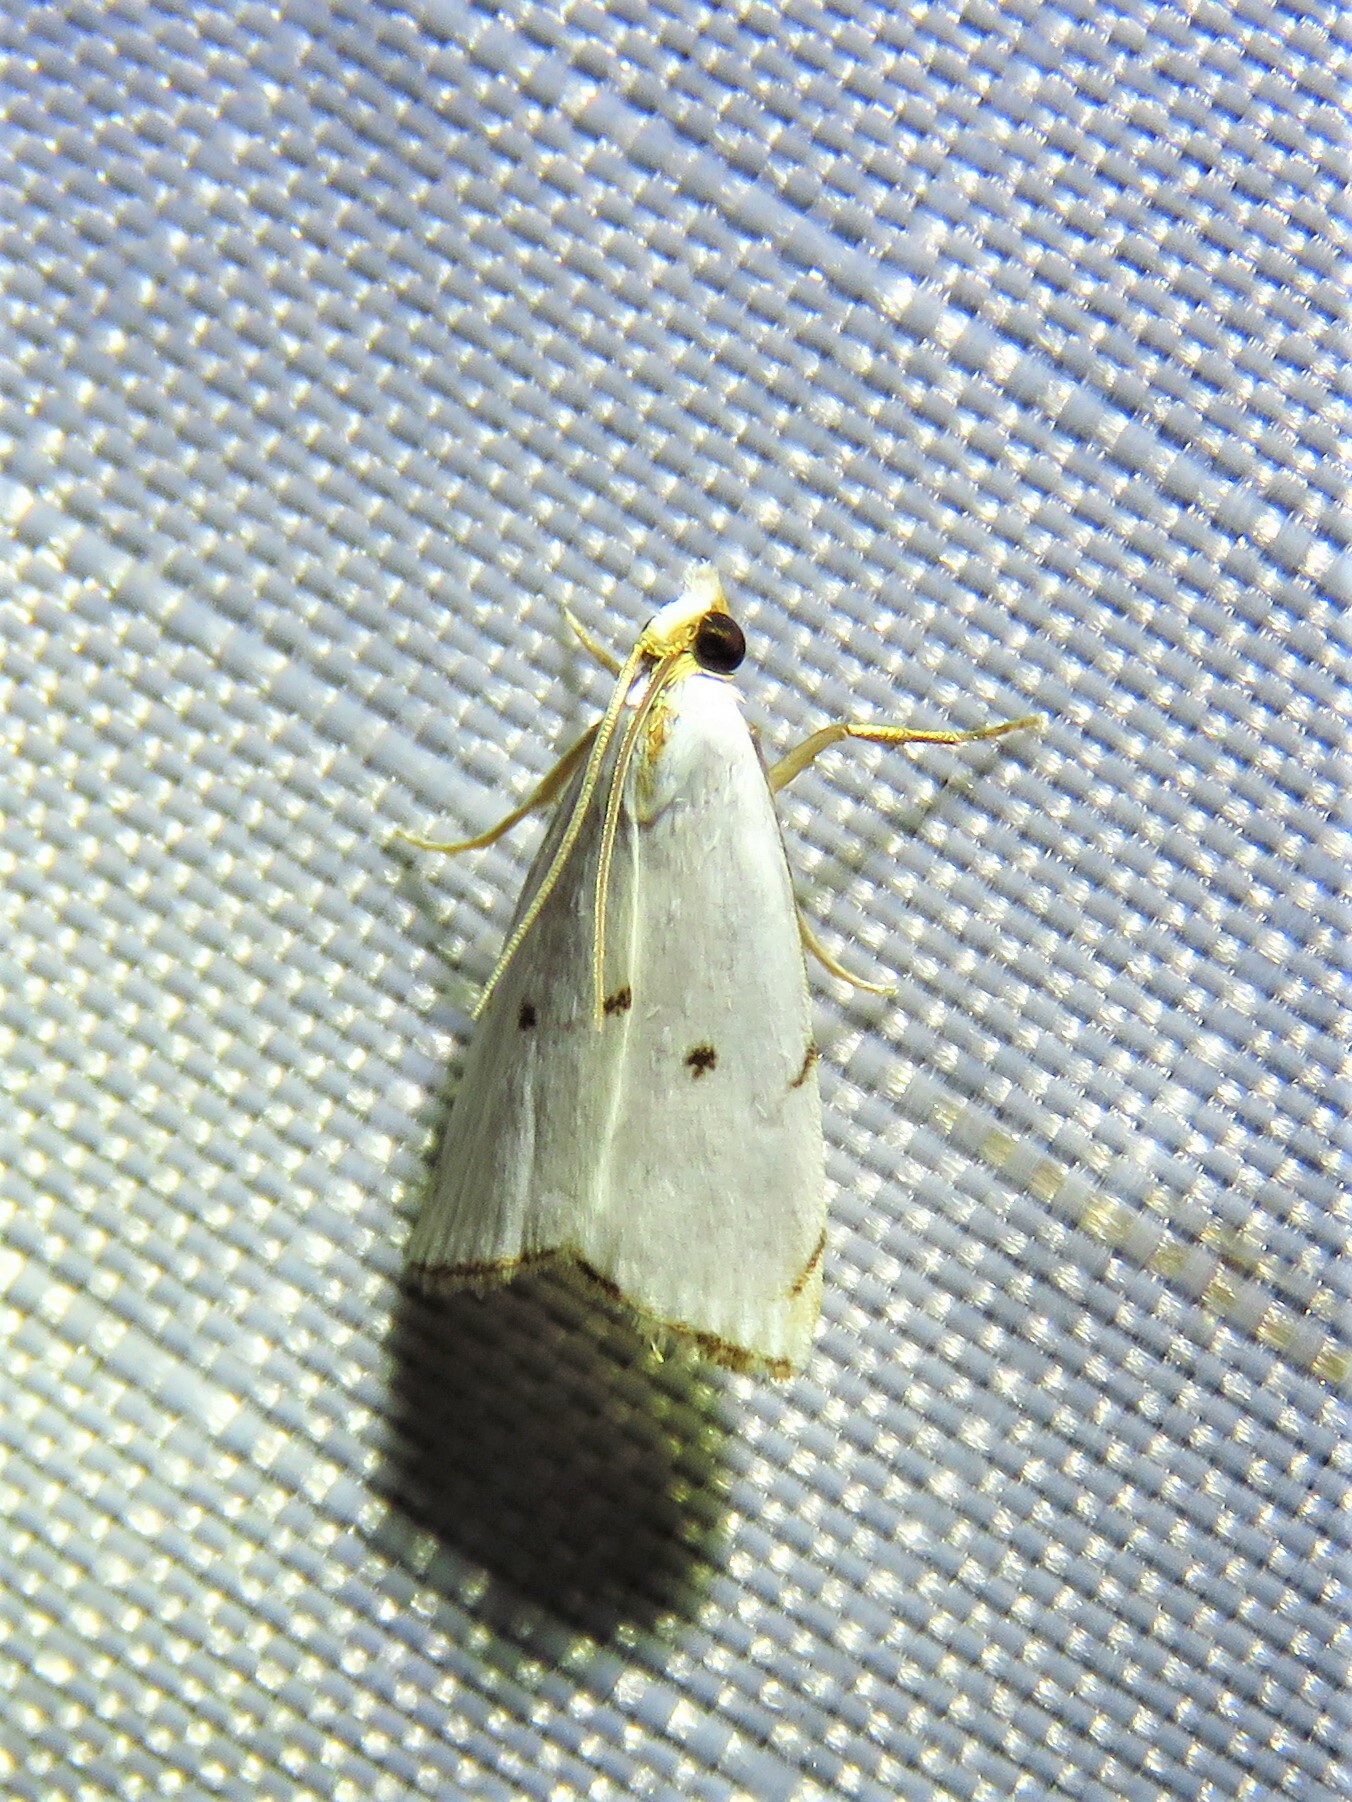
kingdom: Animalia
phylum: Arthropoda
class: Insecta
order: Lepidoptera
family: Crambidae
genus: Argyria
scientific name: Argyria pusillalis
